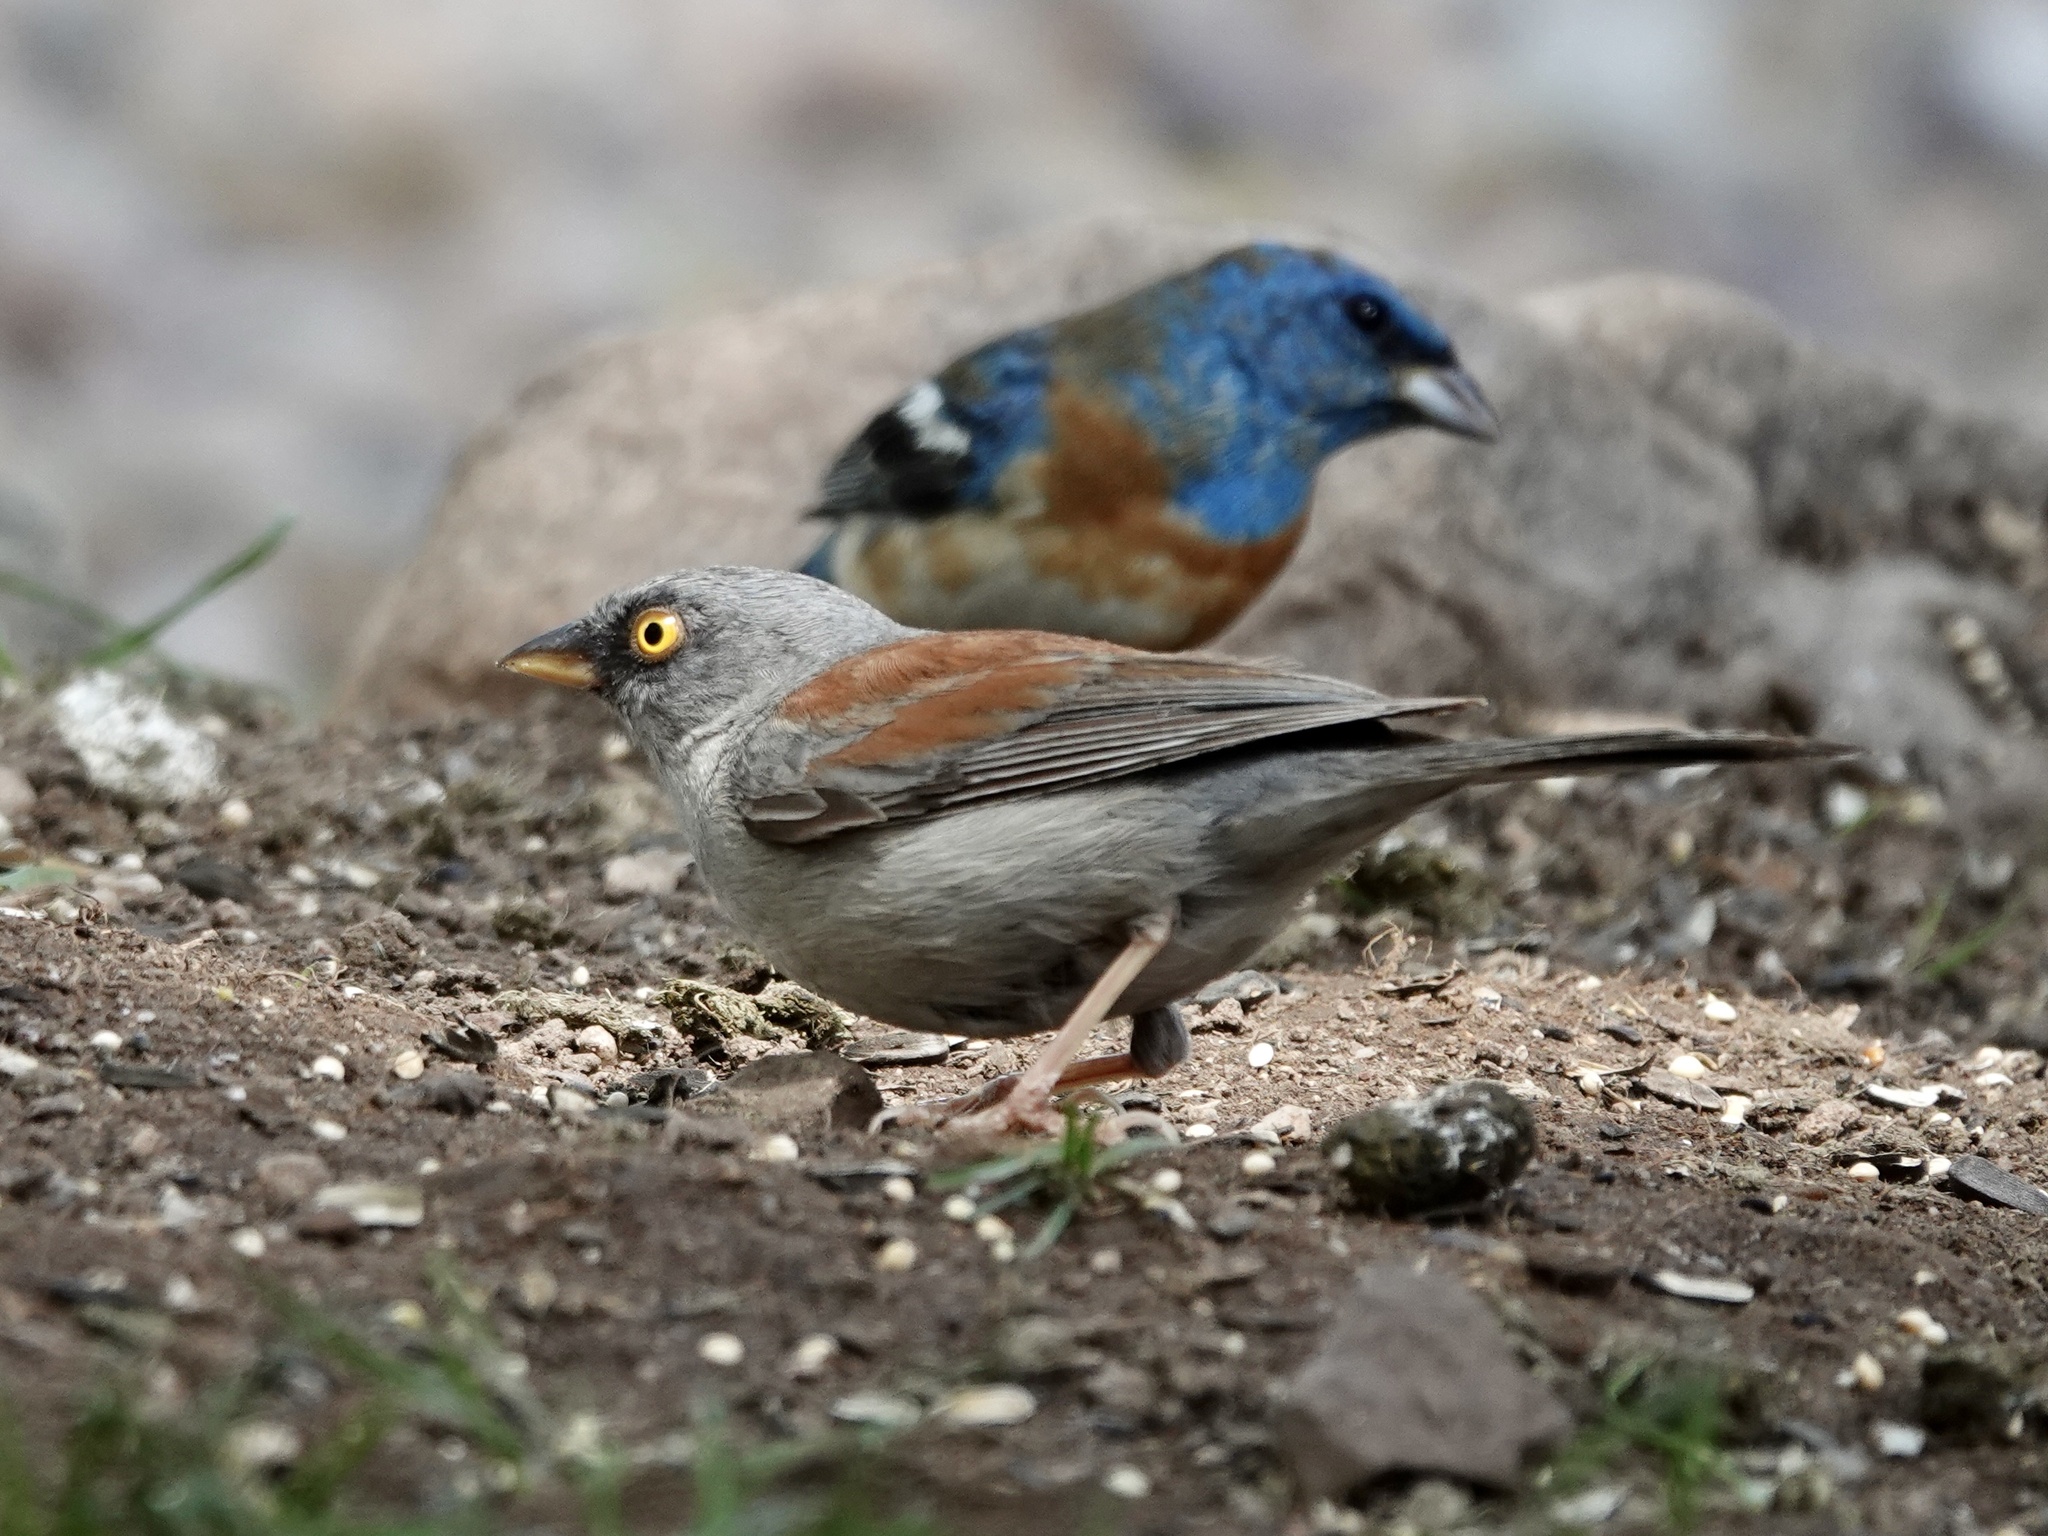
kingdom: Animalia
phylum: Chordata
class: Aves
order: Passeriformes
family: Passerellidae
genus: Junco
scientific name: Junco phaeonotus
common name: Yellow-eyed junco
